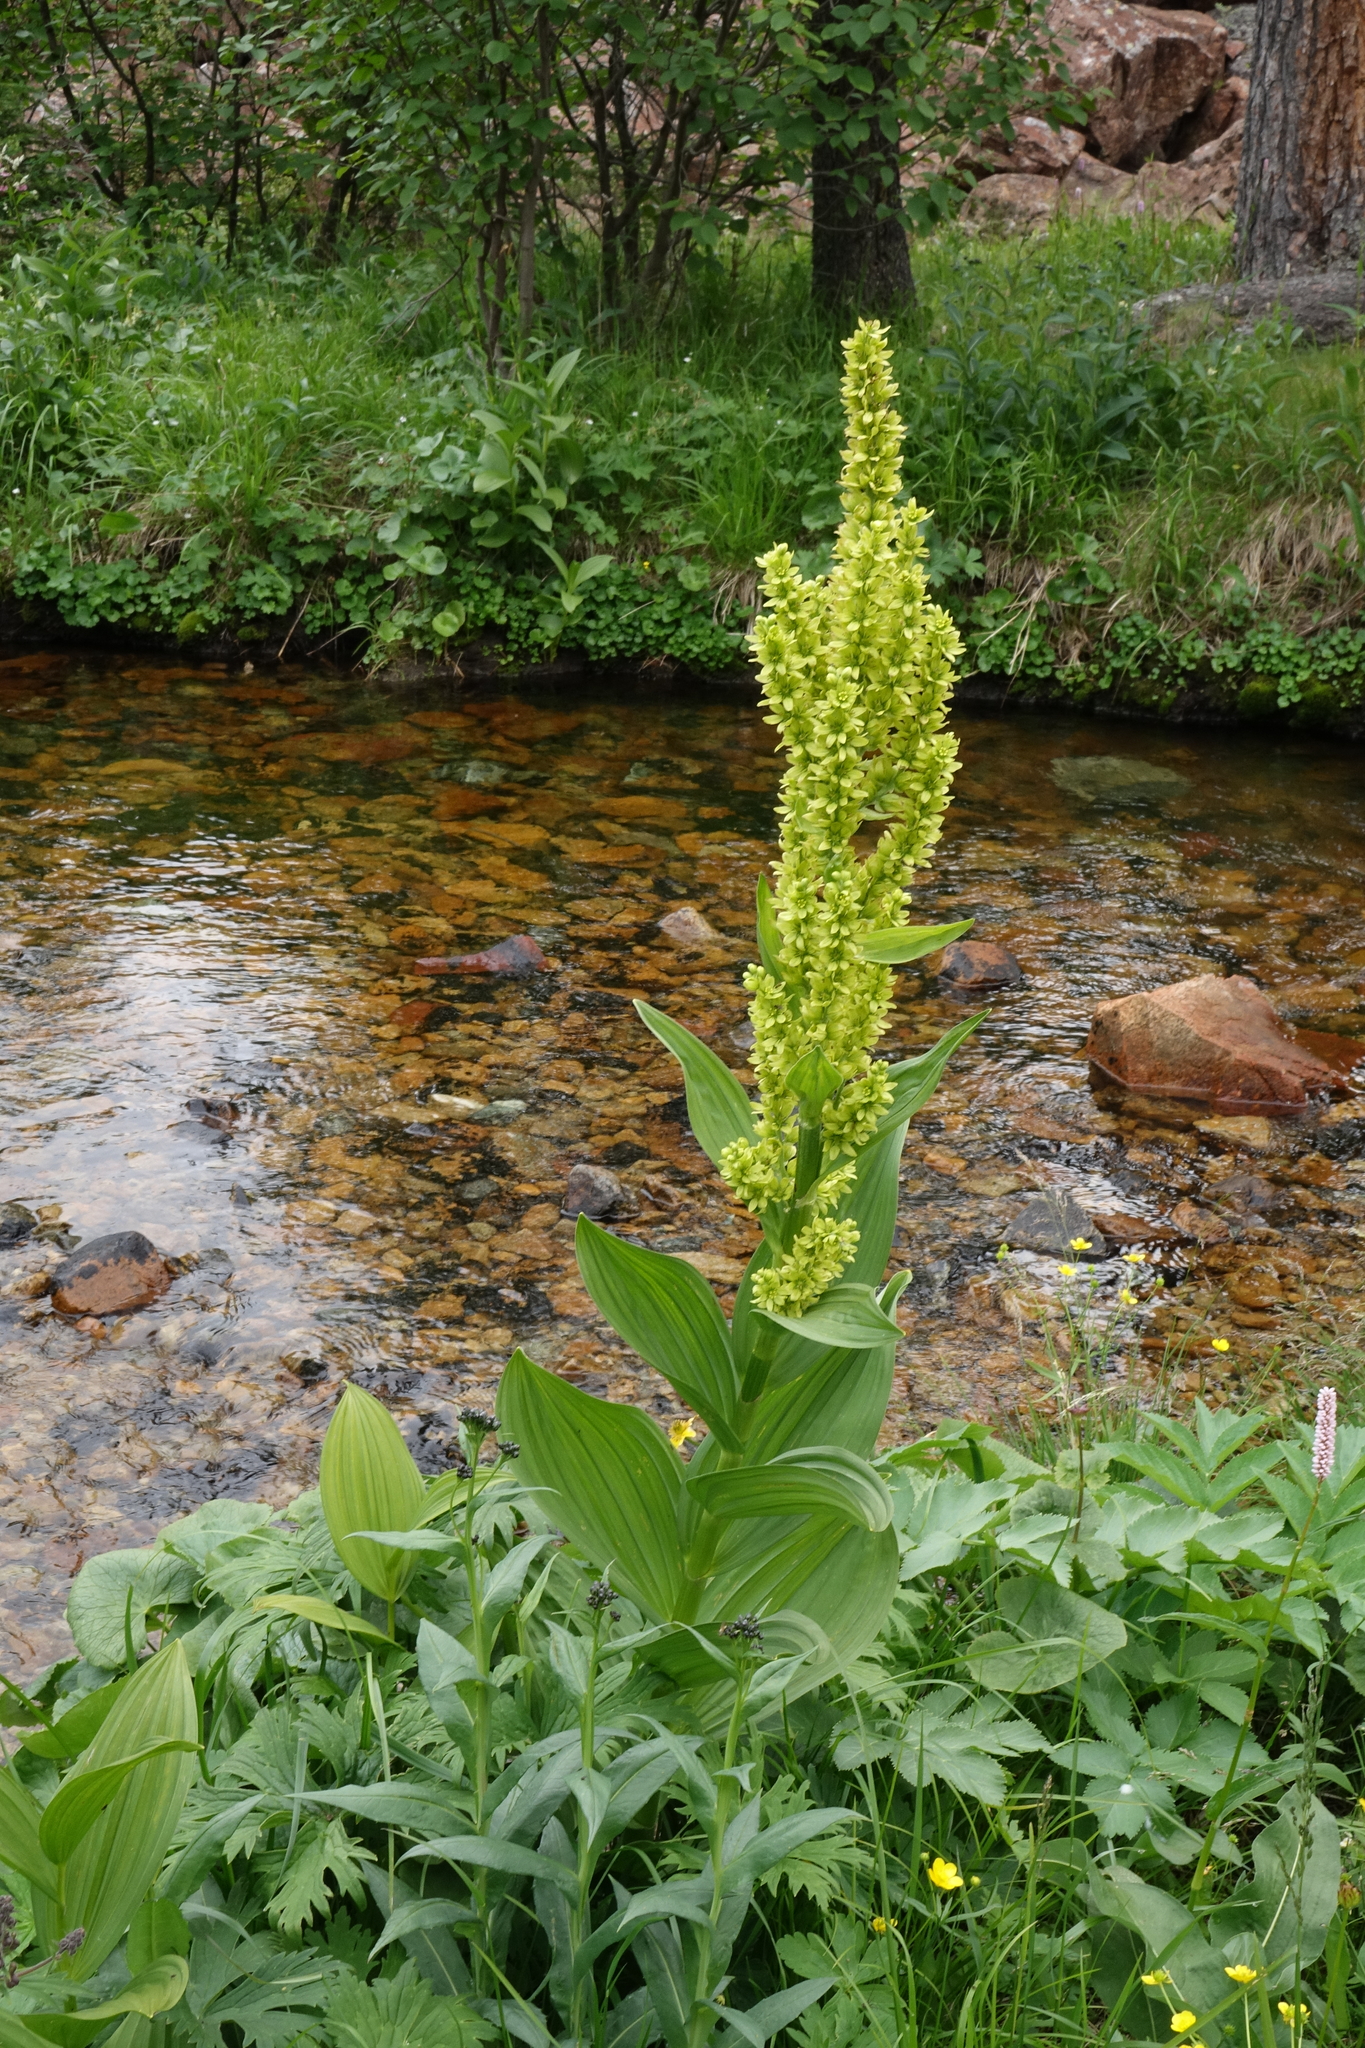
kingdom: Plantae
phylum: Tracheophyta
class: Liliopsida
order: Liliales
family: Melanthiaceae
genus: Veratrum
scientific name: Veratrum lobelianum
